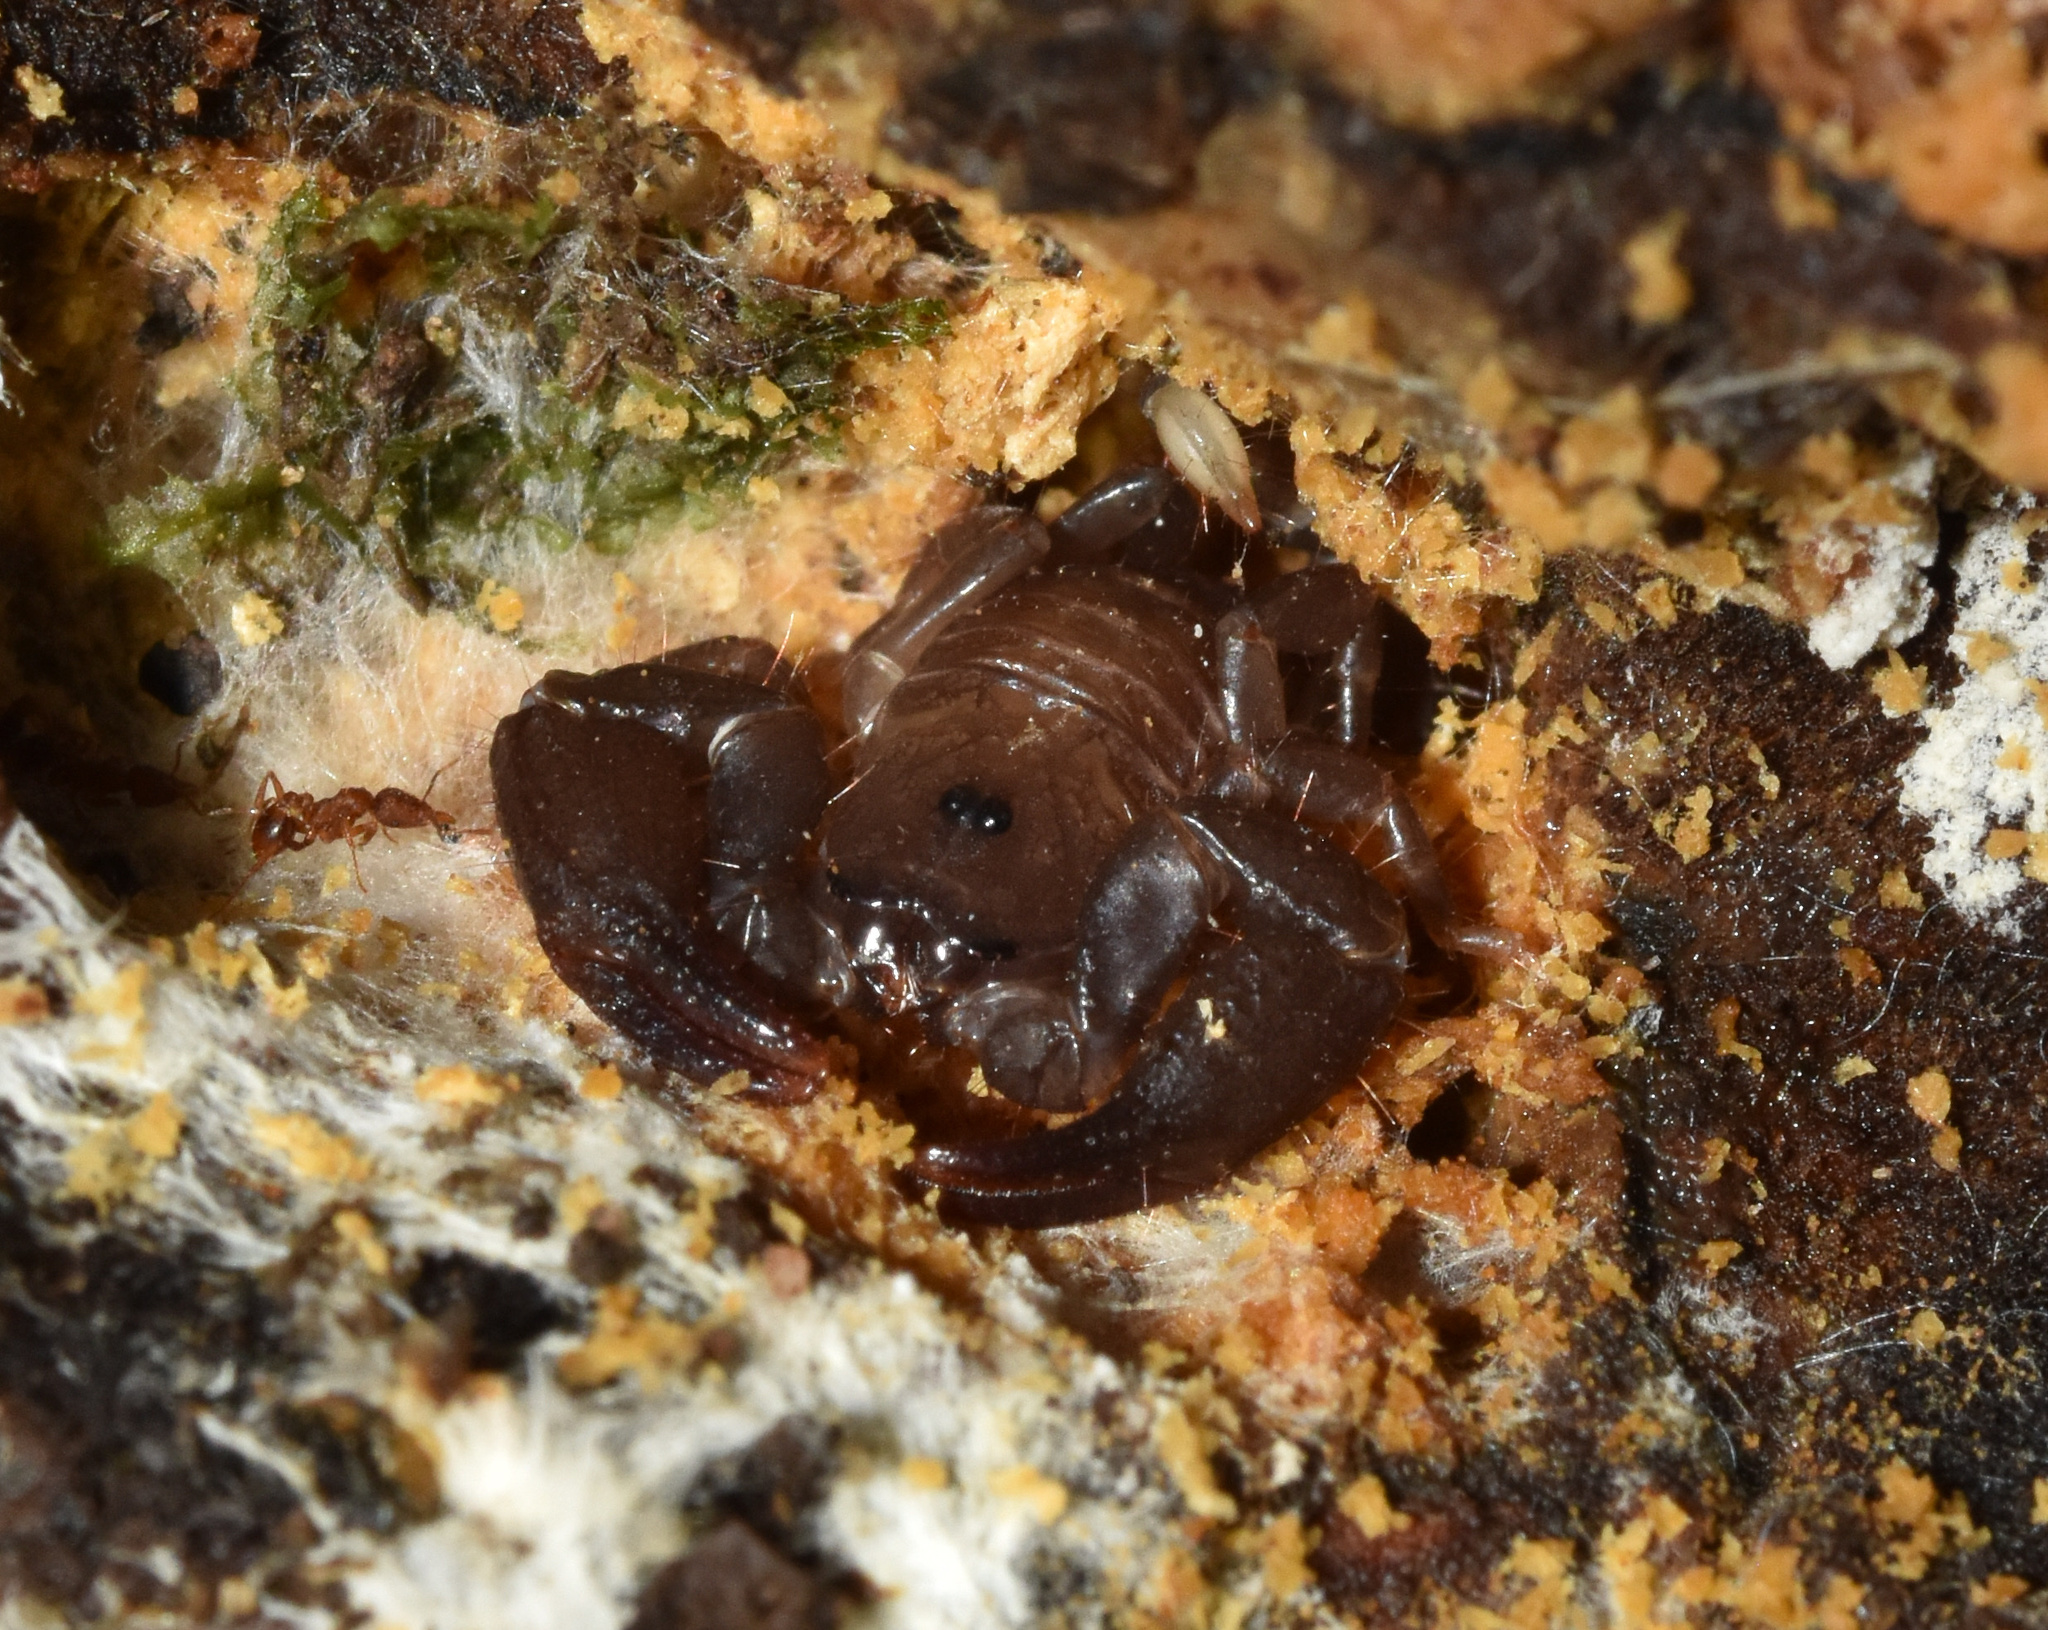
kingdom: Animalia
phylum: Arthropoda
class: Arachnida
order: Scorpiones
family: Hormuridae
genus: Opisthacanthus
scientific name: Opisthacanthus validus
